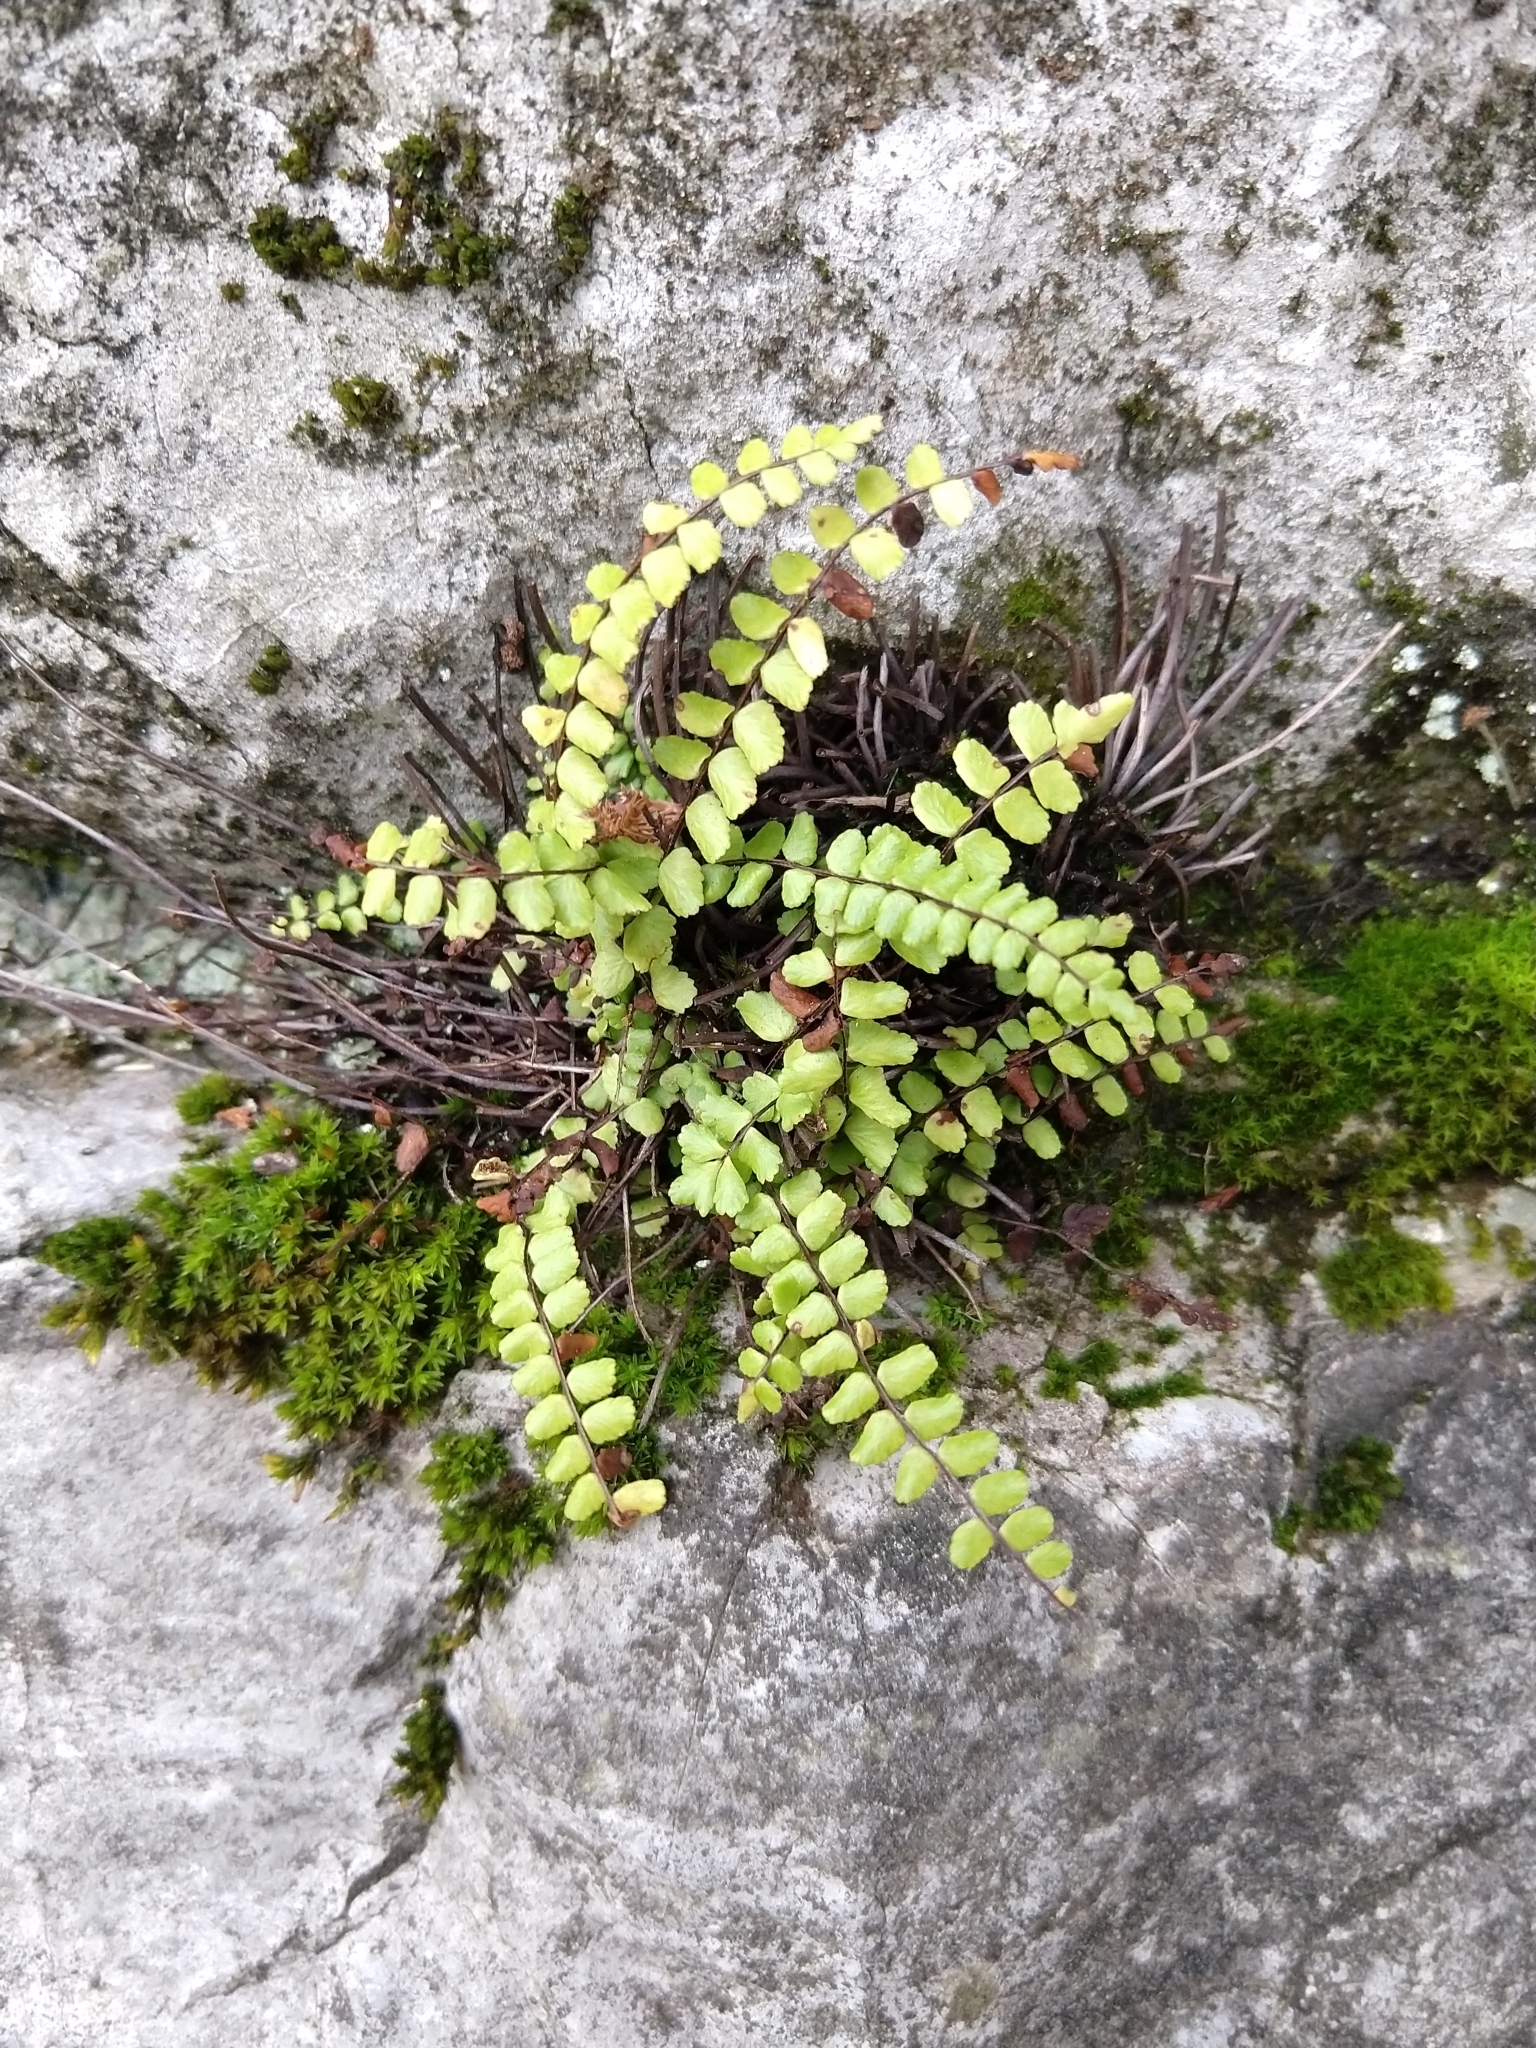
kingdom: Plantae
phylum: Tracheophyta
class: Polypodiopsida
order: Polypodiales
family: Aspleniaceae
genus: Asplenium
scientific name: Asplenium trichomanes
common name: Maidenhair spleenwort
